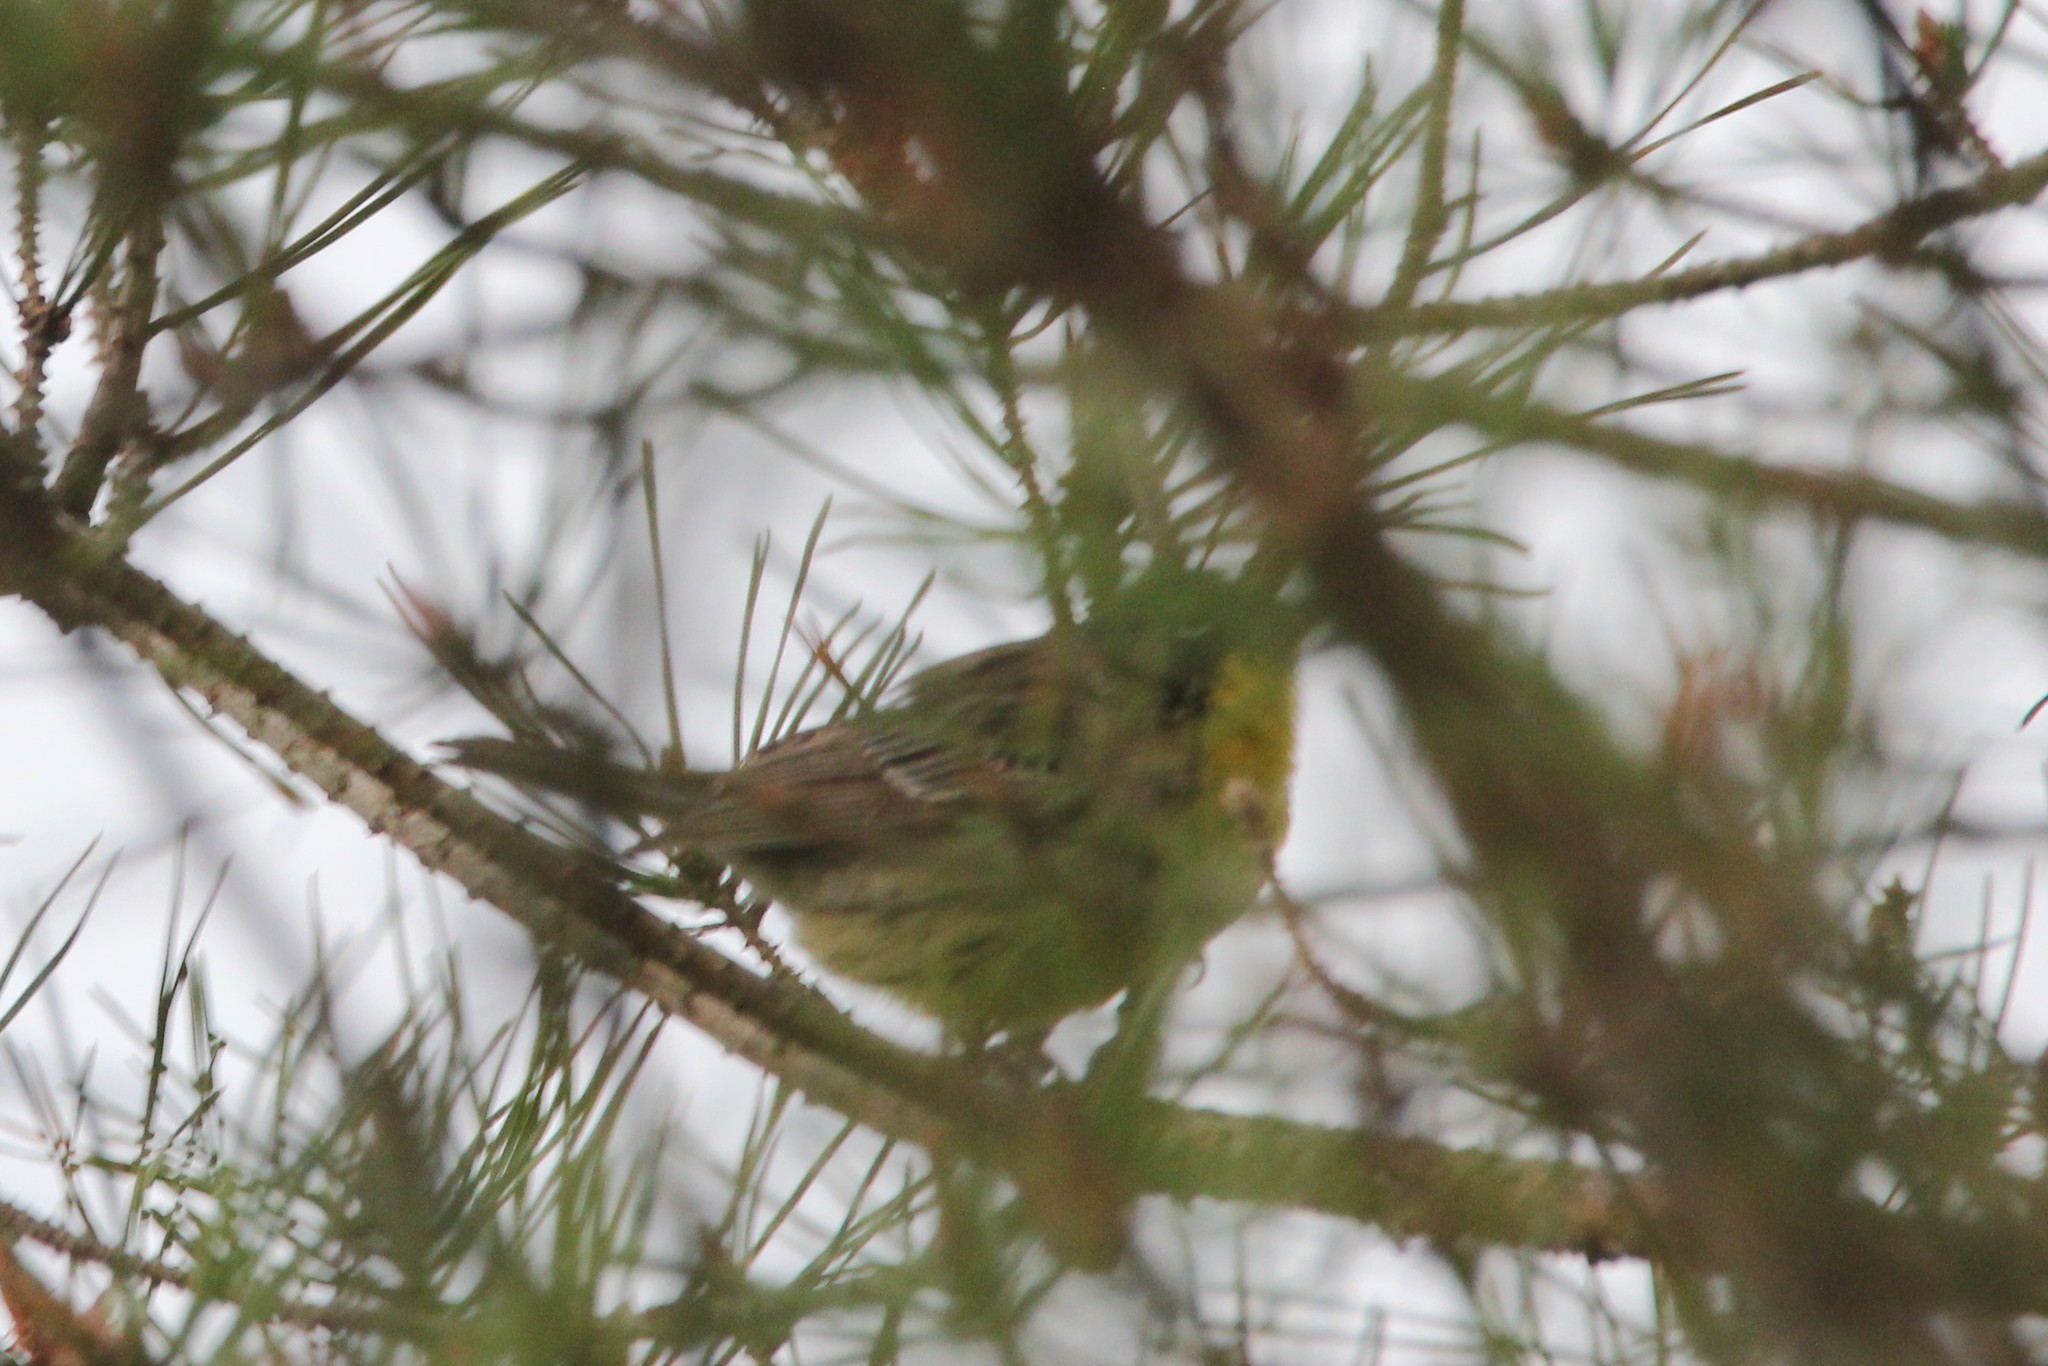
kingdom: Animalia
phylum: Chordata
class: Aves
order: Passeriformes
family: Parulidae
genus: Setophaga
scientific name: Setophaga kirtlandii
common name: Kirtland's warbler
